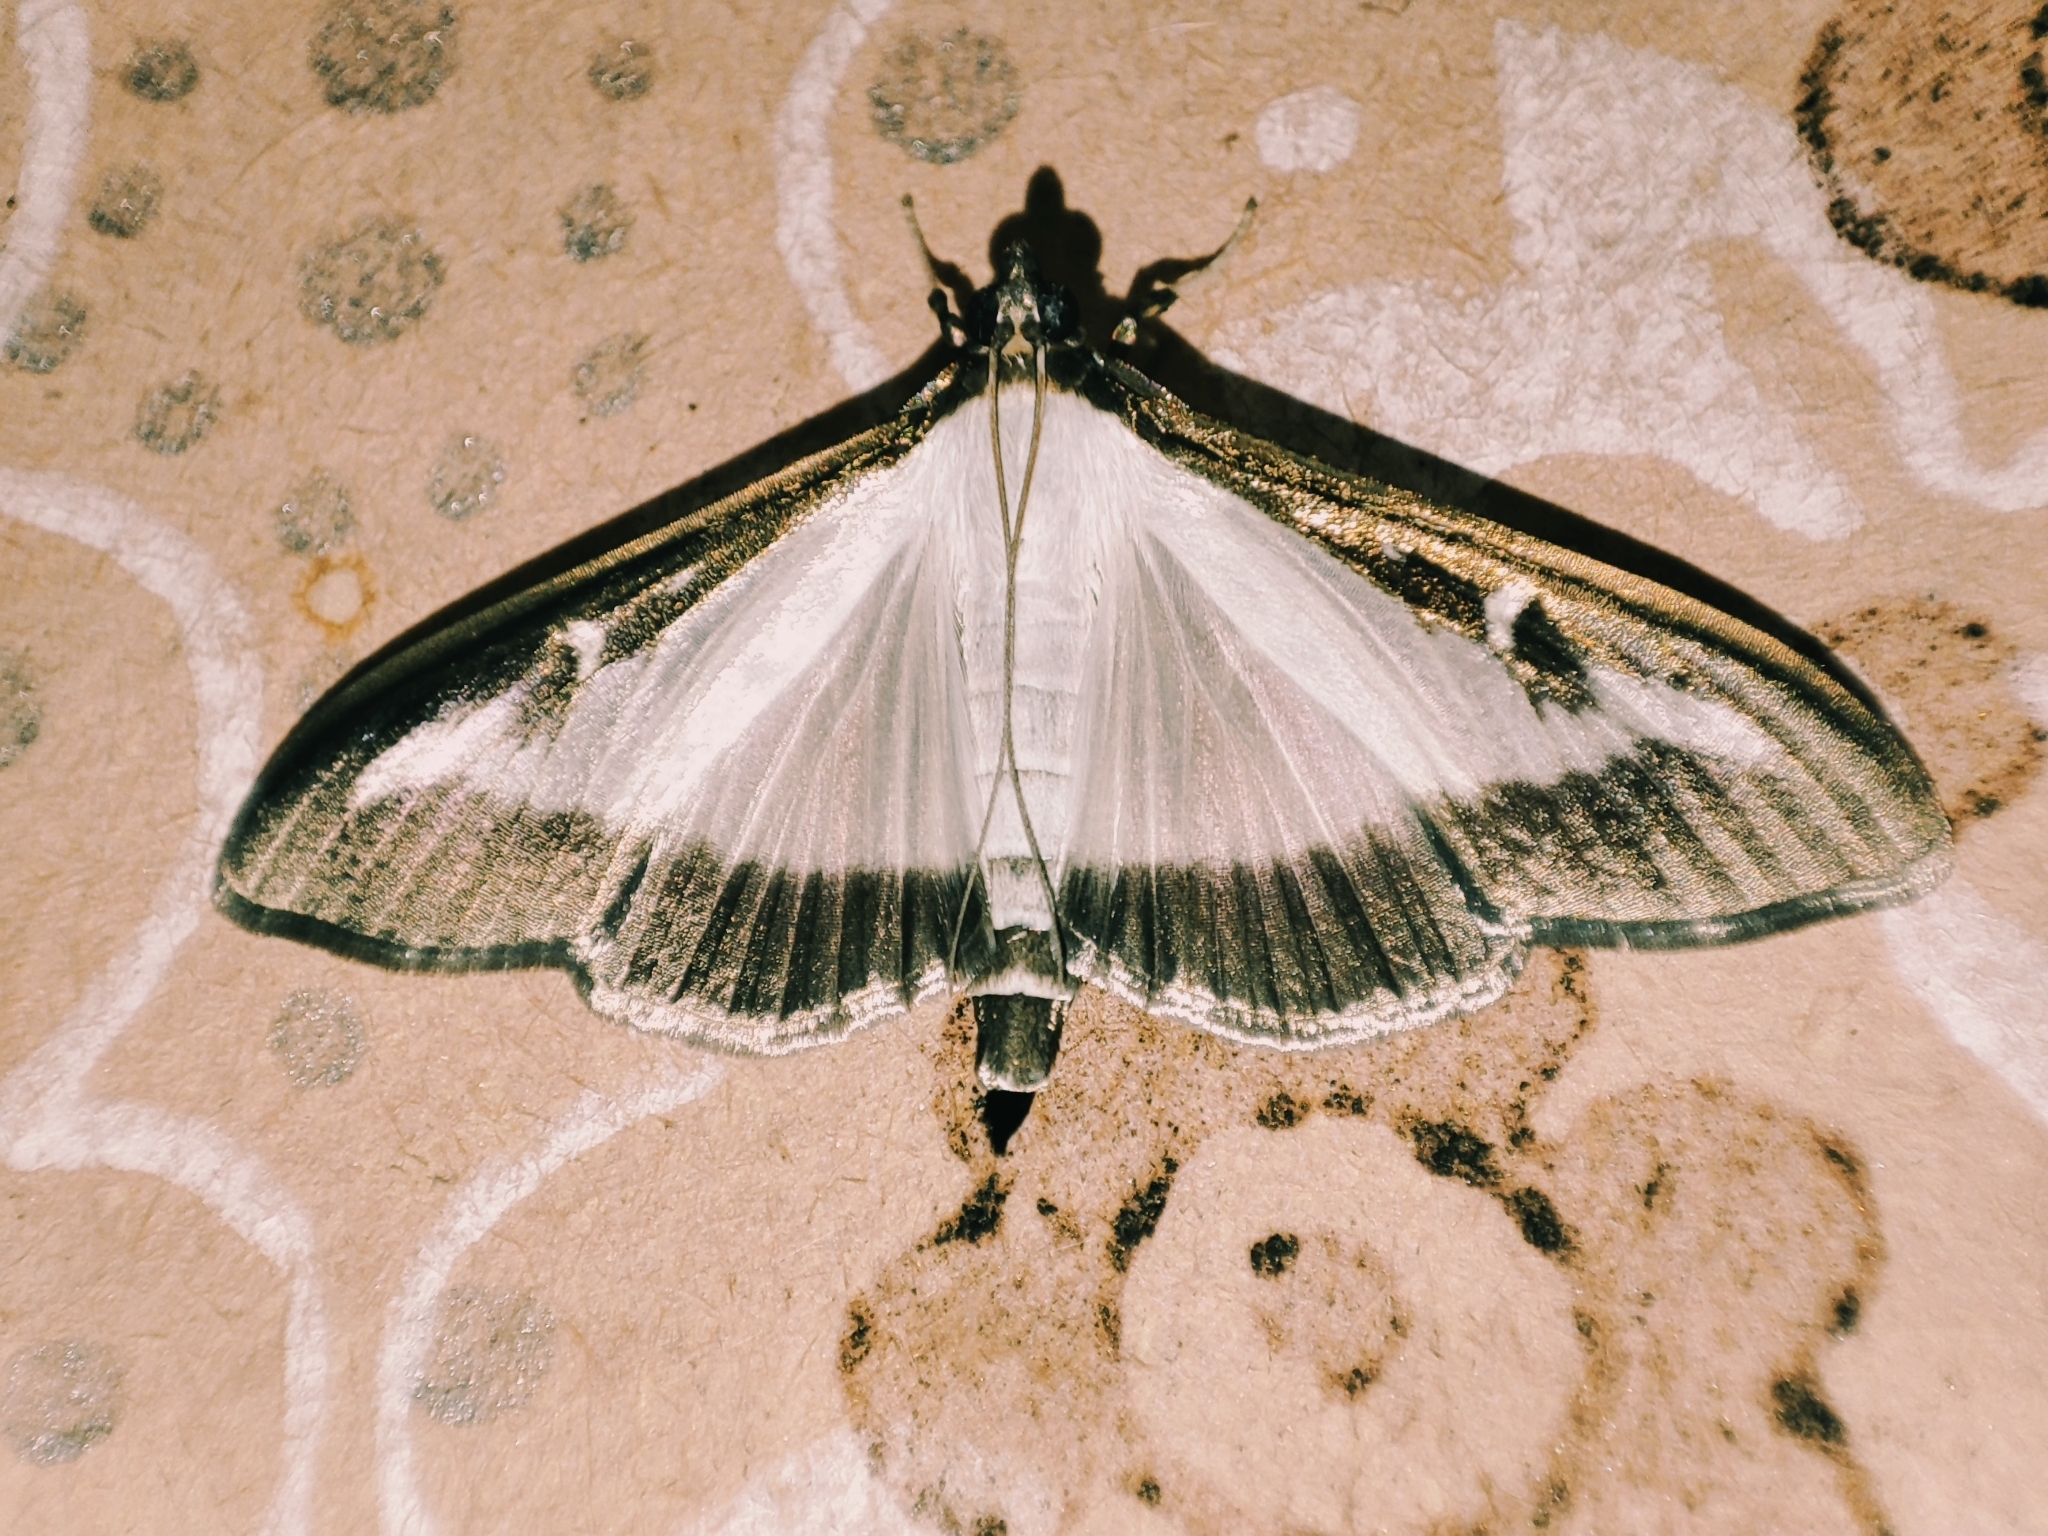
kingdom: Animalia
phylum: Arthropoda
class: Insecta
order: Lepidoptera
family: Crambidae
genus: Cydalima
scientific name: Cydalima perspectalis
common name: Box tree moth
